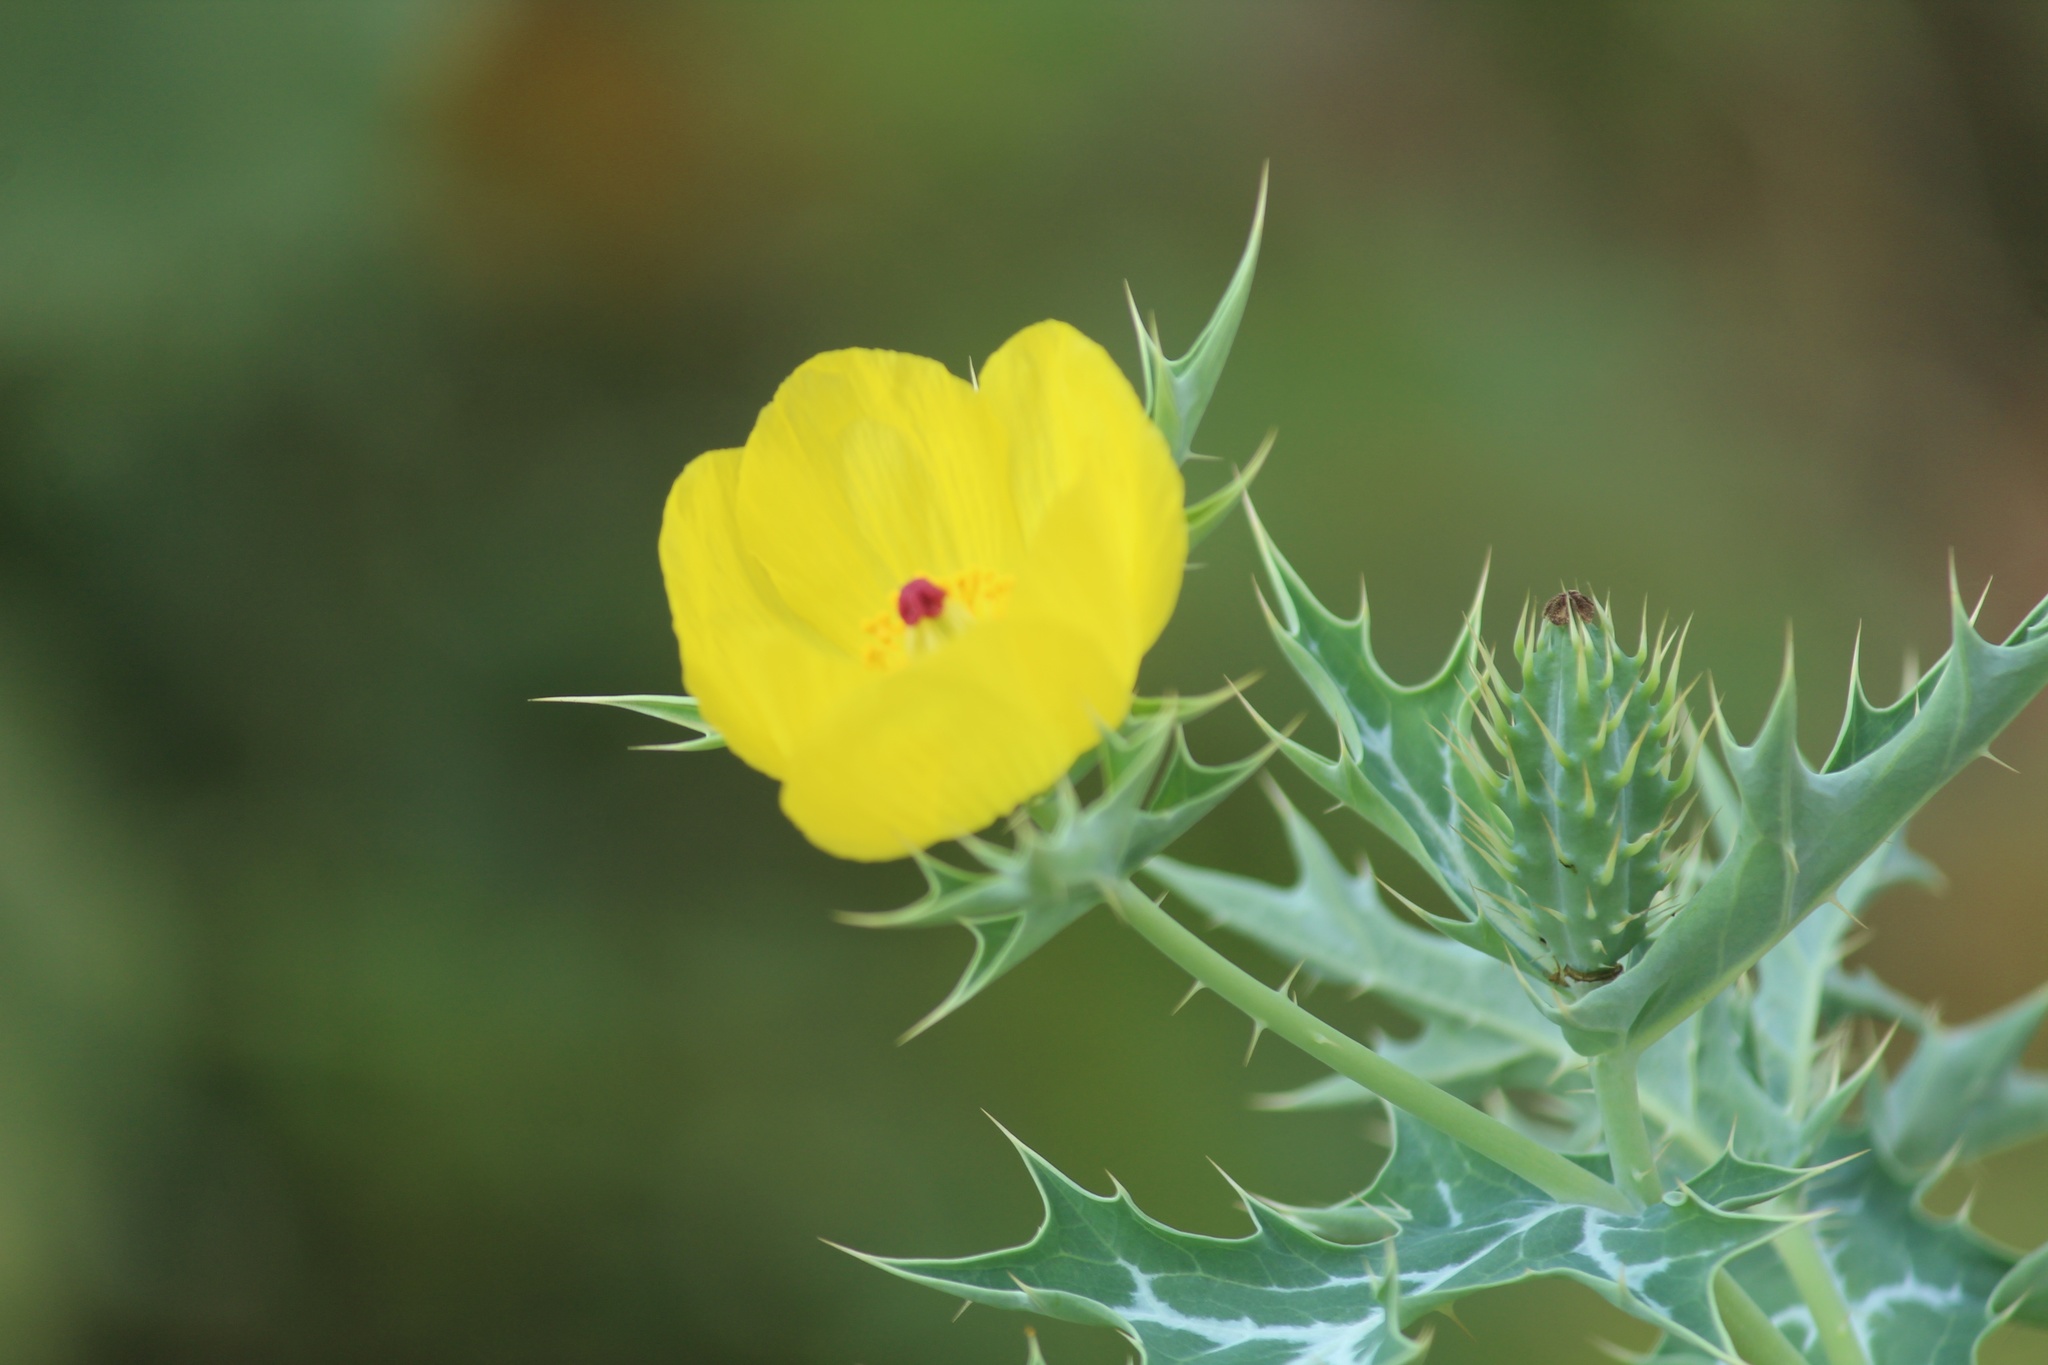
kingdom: Plantae
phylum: Tracheophyta
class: Magnoliopsida
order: Ranunculales
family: Papaveraceae
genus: Argemone
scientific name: Argemone mexicana
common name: Mexican poppy
